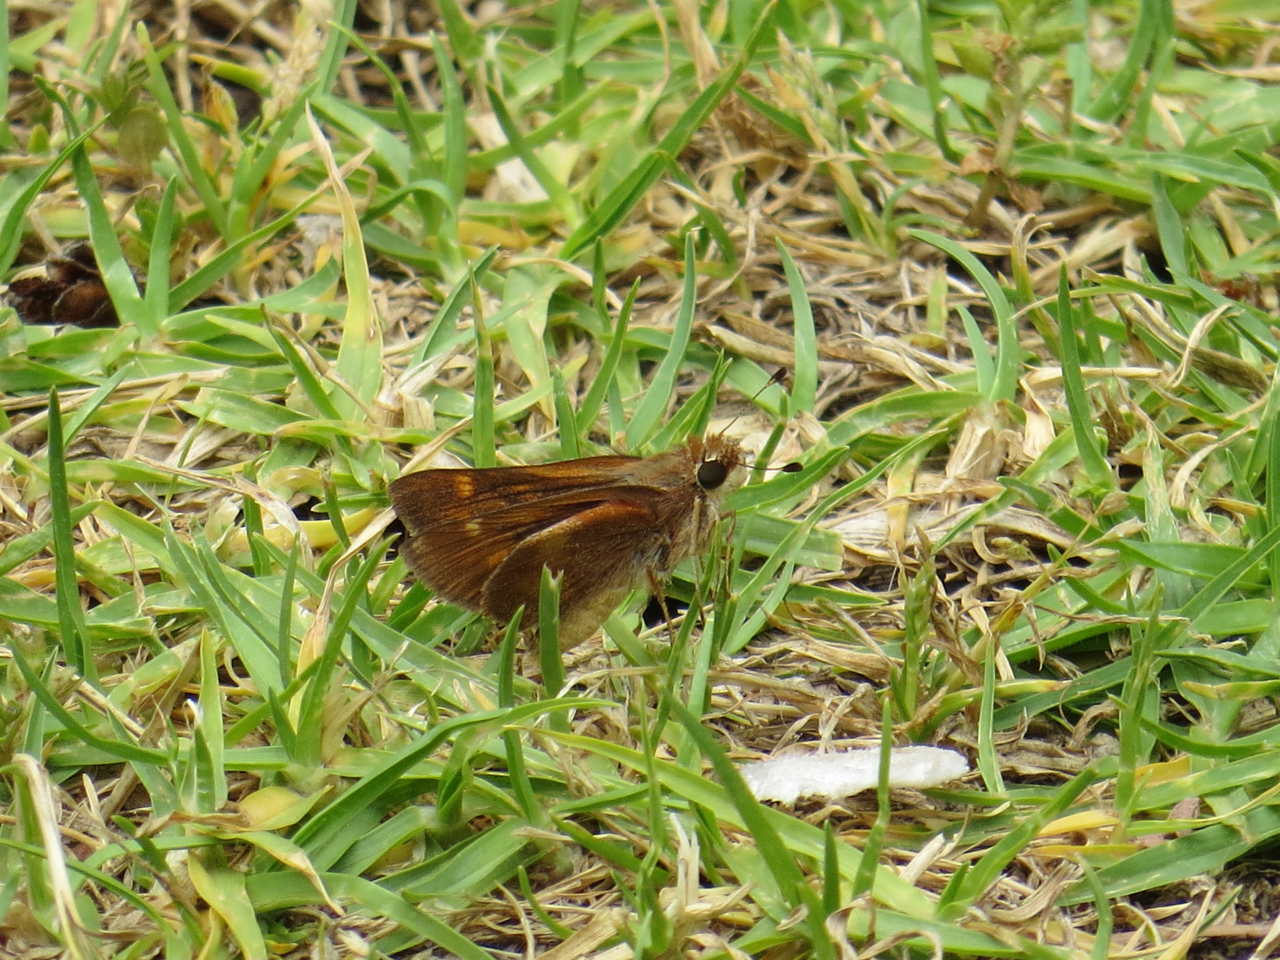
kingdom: Animalia
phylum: Arthropoda
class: Insecta
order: Lepidoptera
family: Hesperiidae
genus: Lon
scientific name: Lon melane
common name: Umber skipper
